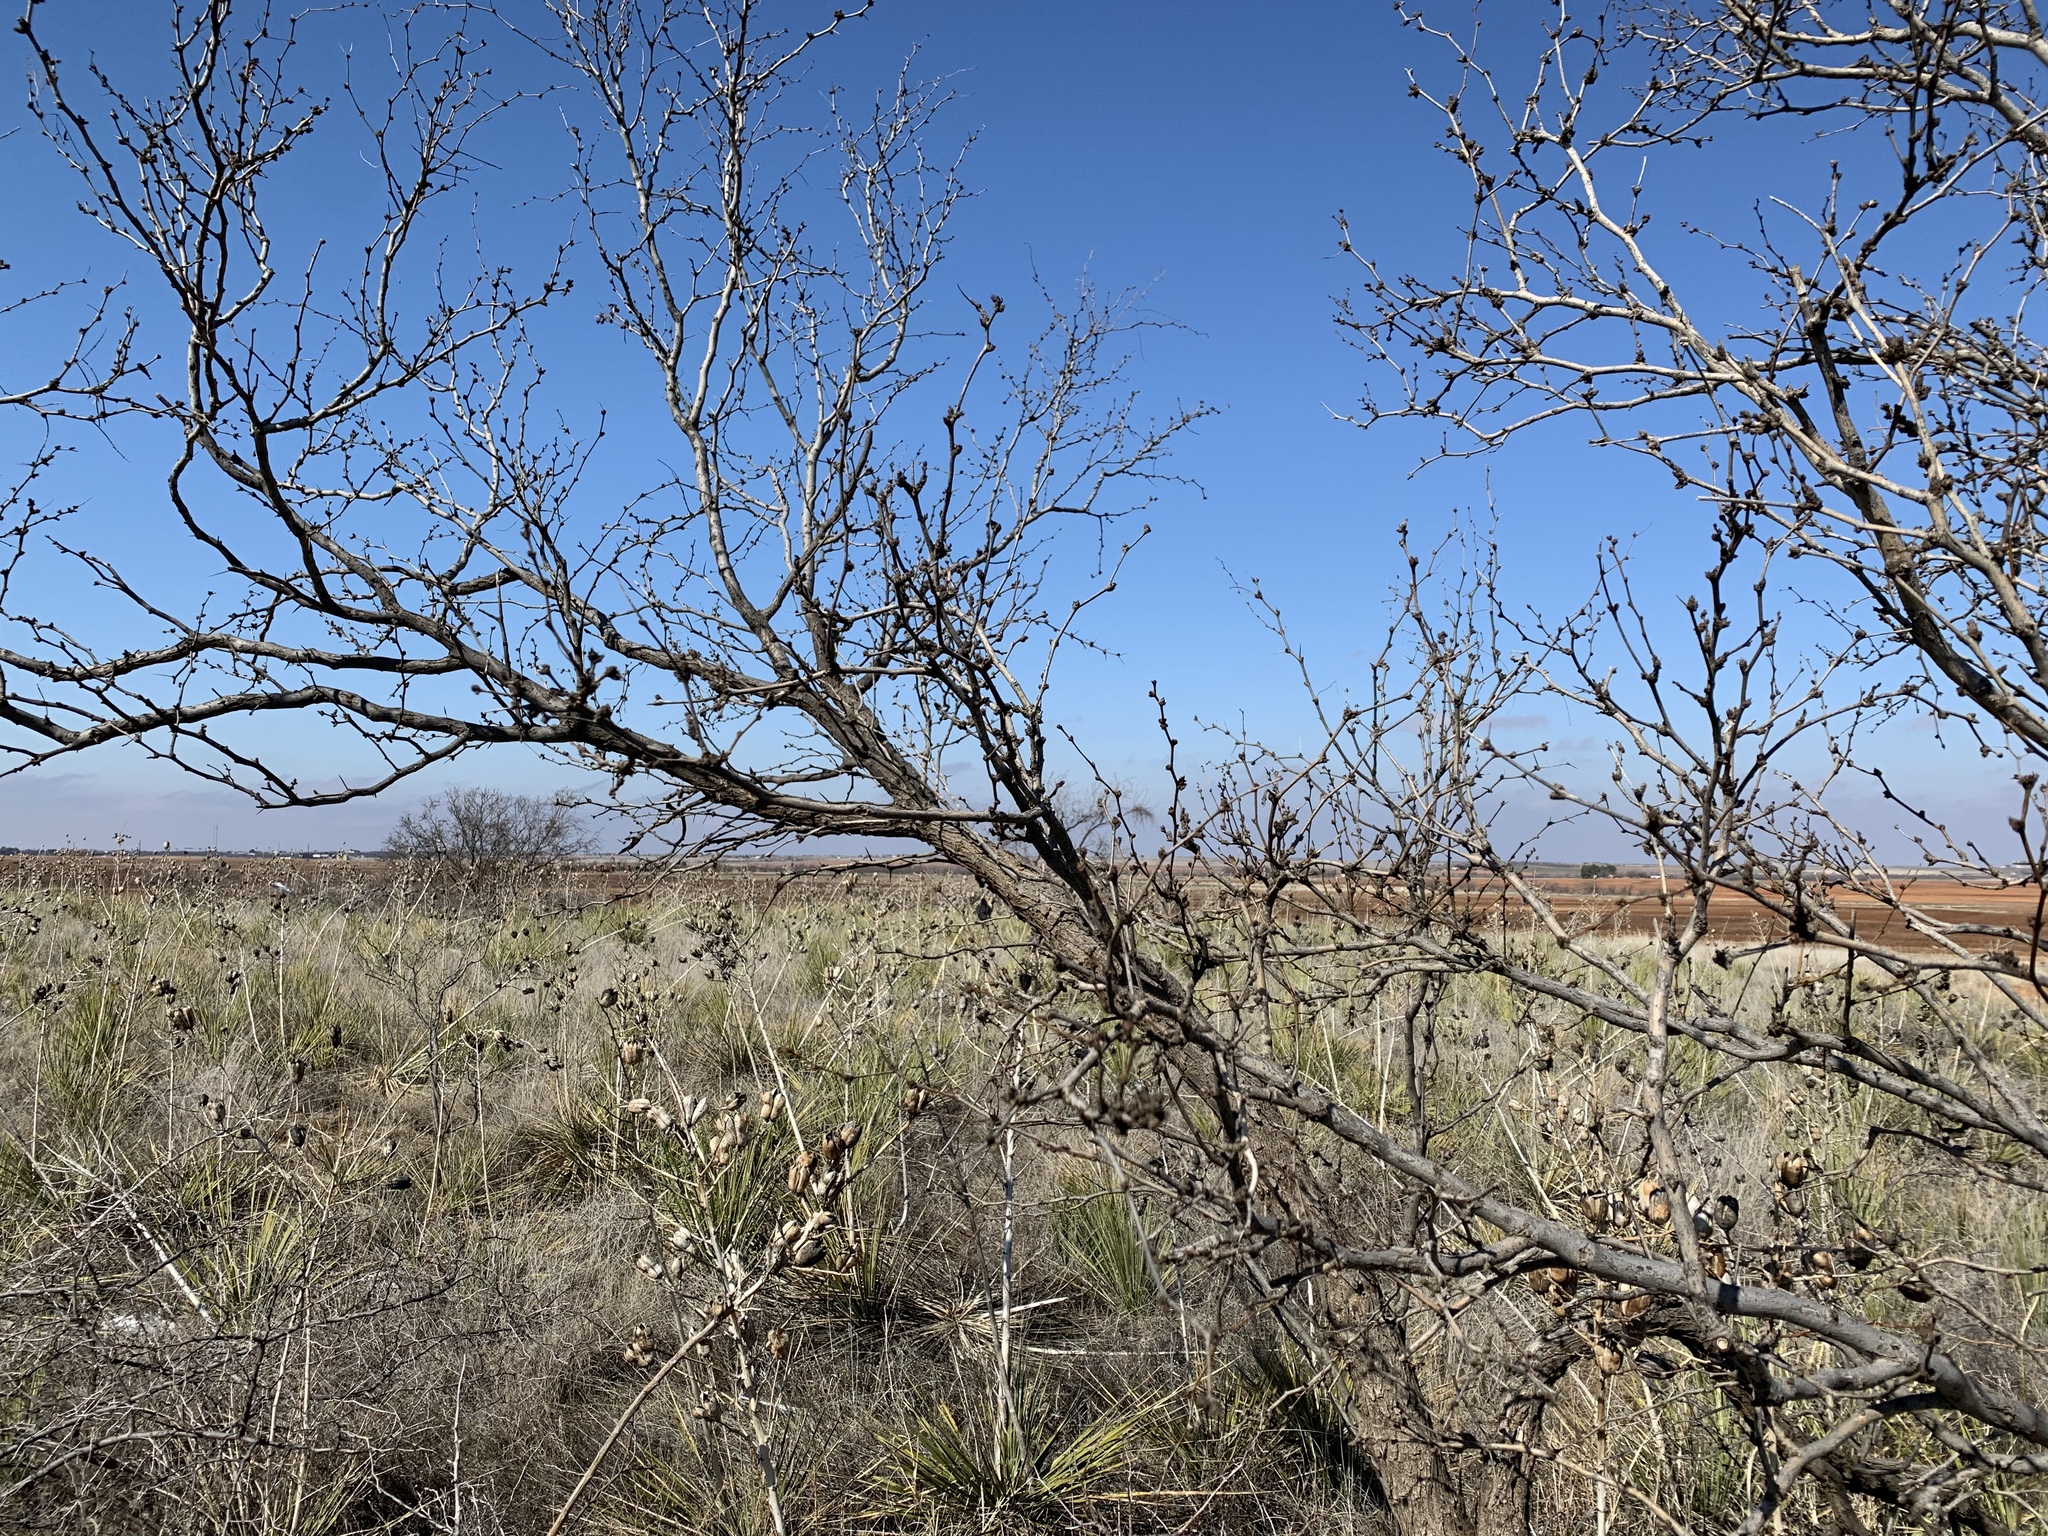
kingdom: Plantae
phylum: Tracheophyta
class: Magnoliopsida
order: Fabales
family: Fabaceae
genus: Prosopis
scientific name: Prosopis glandulosa
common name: Honey mesquite
